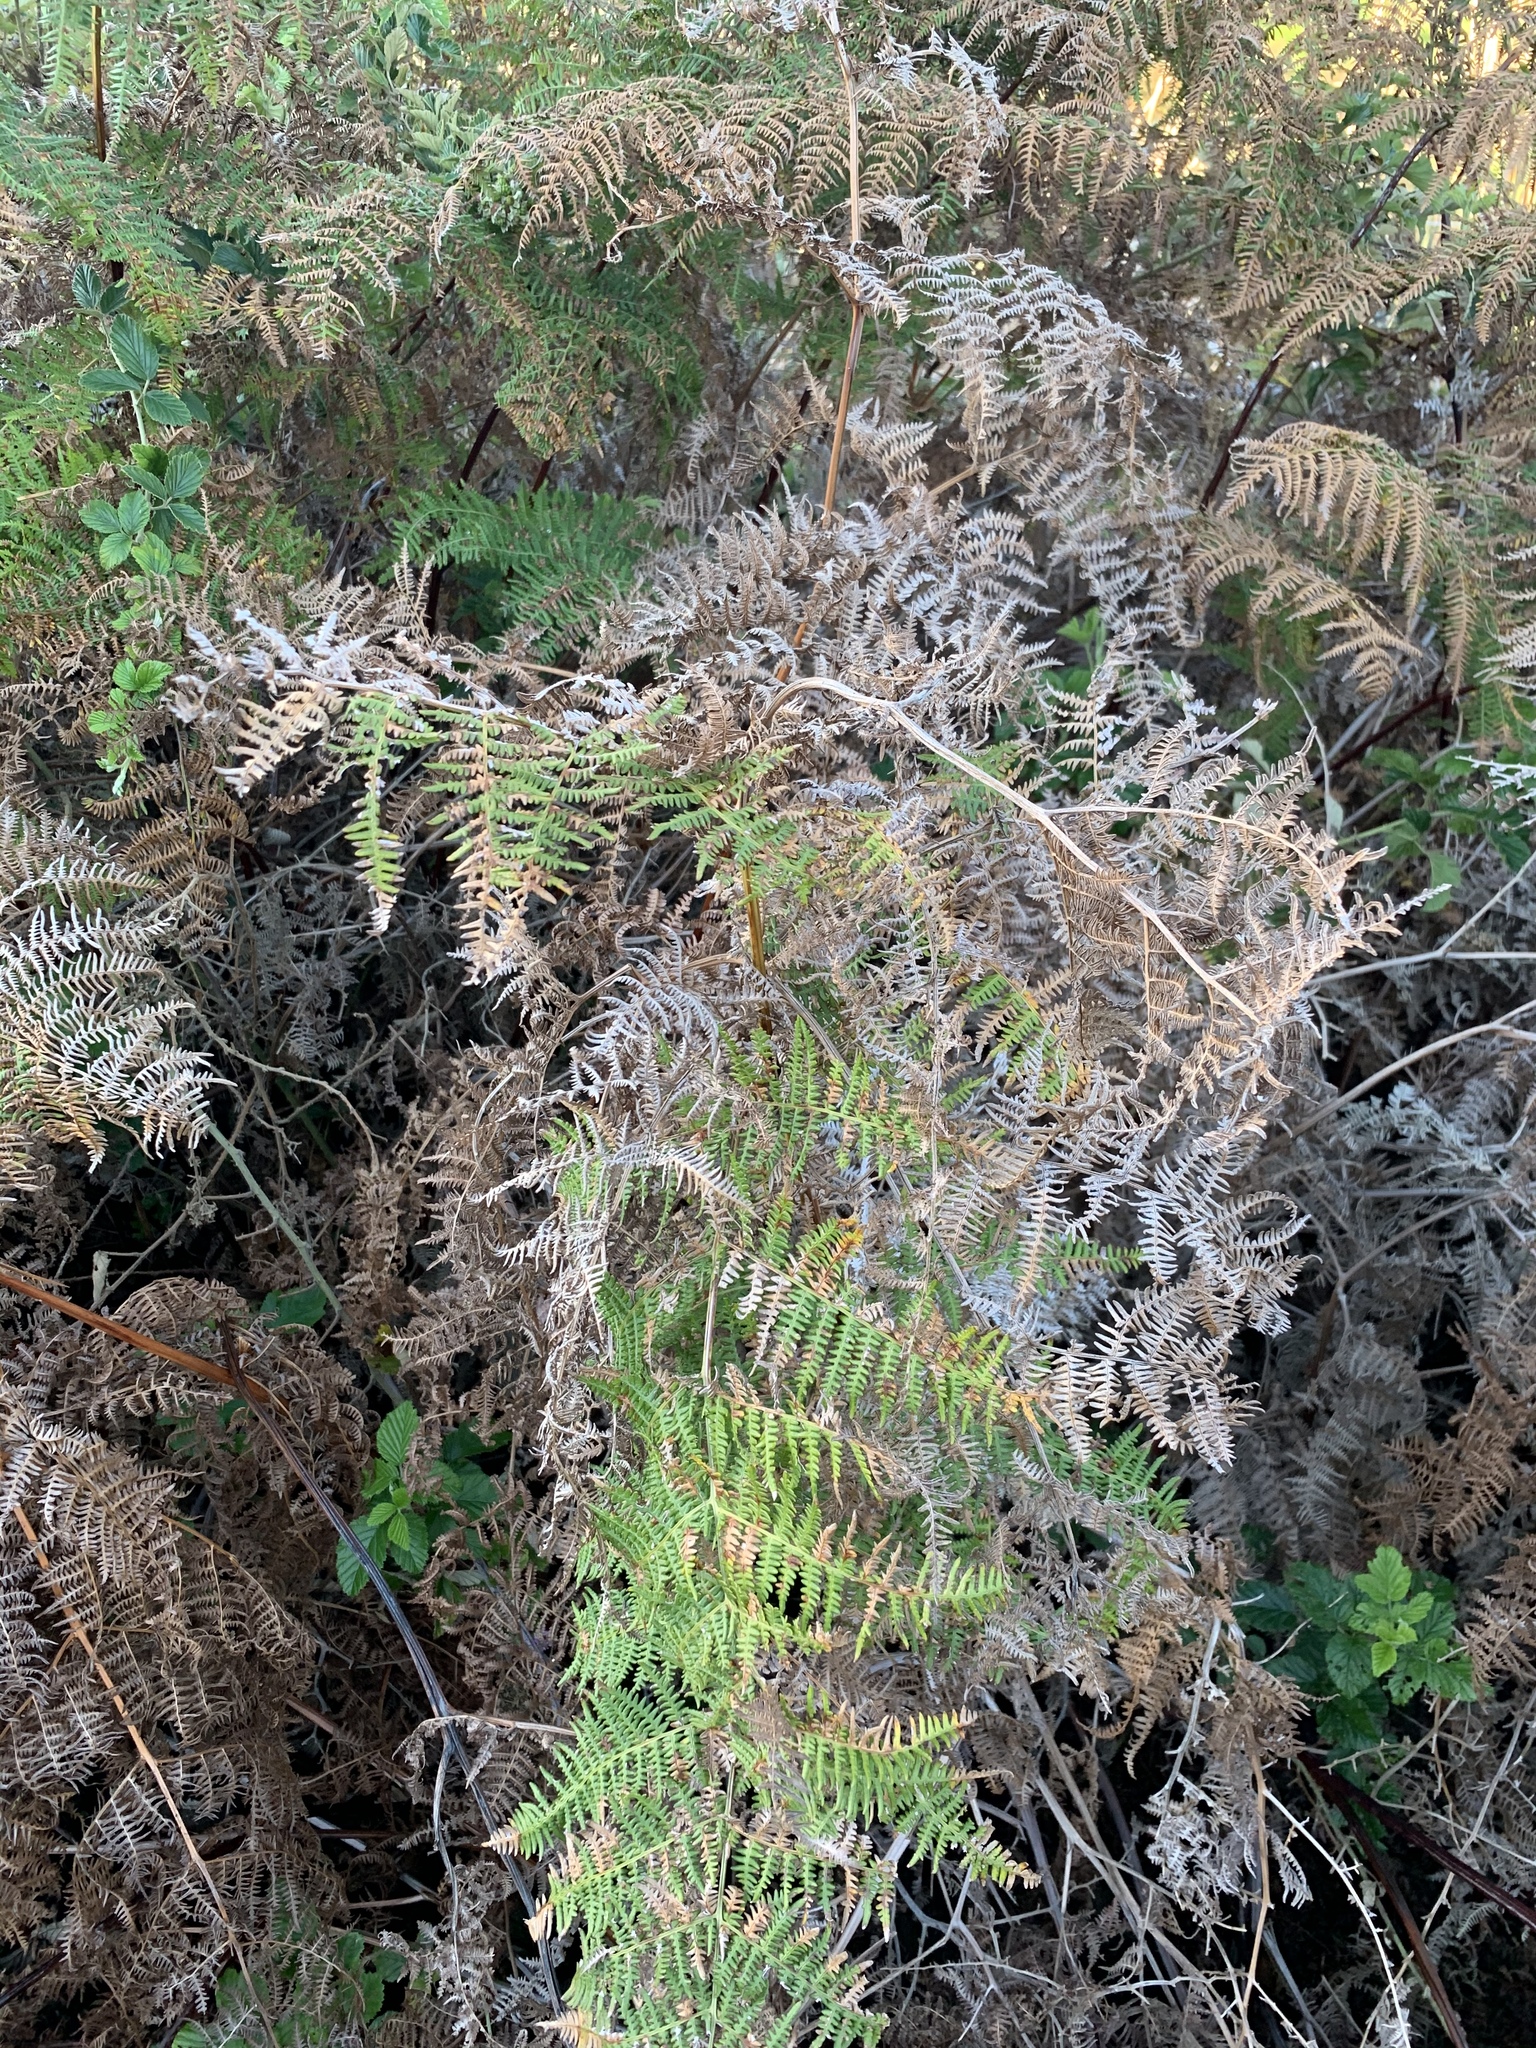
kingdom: Plantae
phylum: Tracheophyta
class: Polypodiopsida
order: Polypodiales
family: Dennstaedtiaceae
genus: Pteridium
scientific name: Pteridium aquilinum
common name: Bracken
